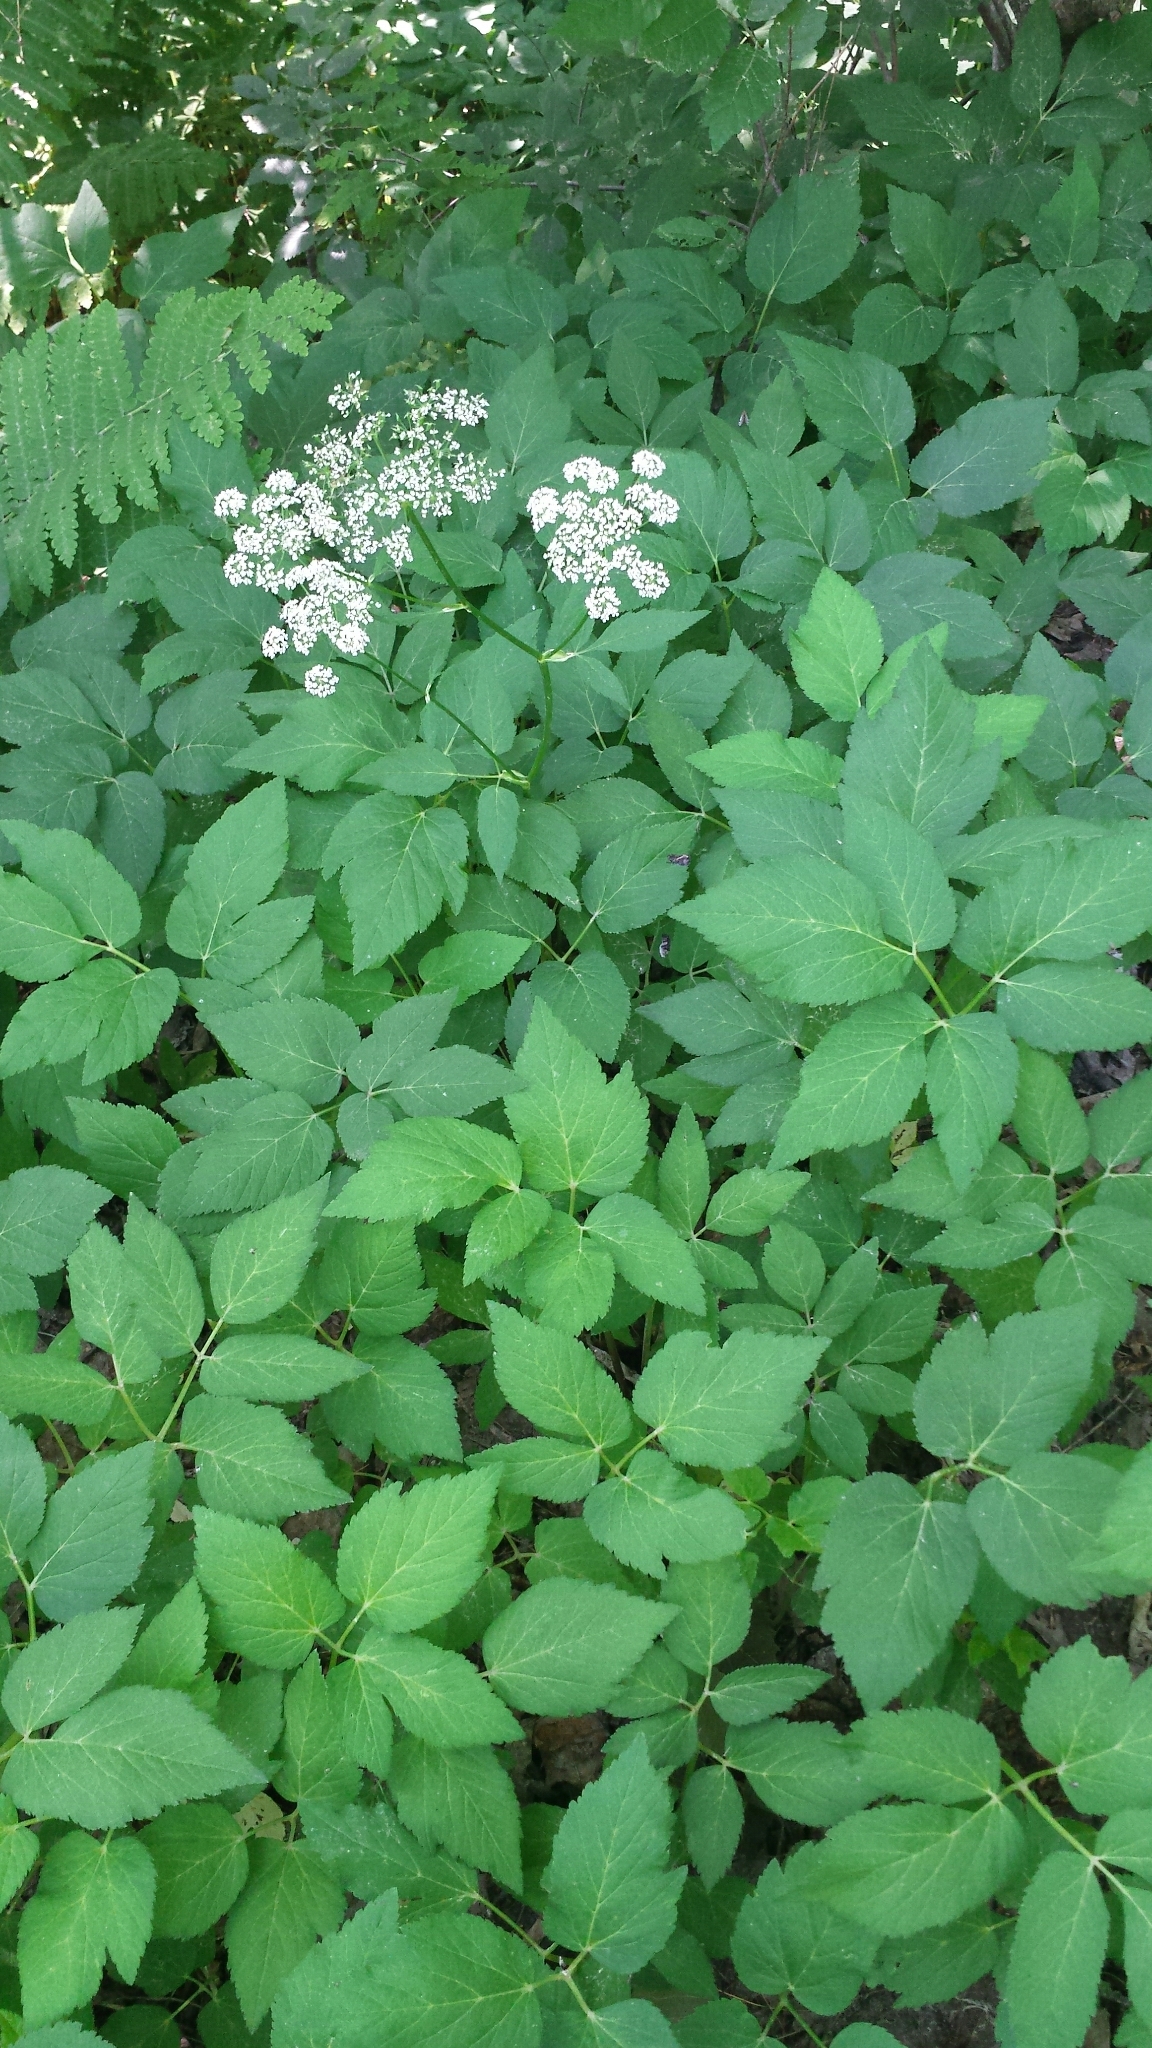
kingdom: Plantae
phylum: Tracheophyta
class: Magnoliopsida
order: Apiales
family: Apiaceae
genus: Aegopodium
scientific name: Aegopodium podagraria
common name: Ground-elder
